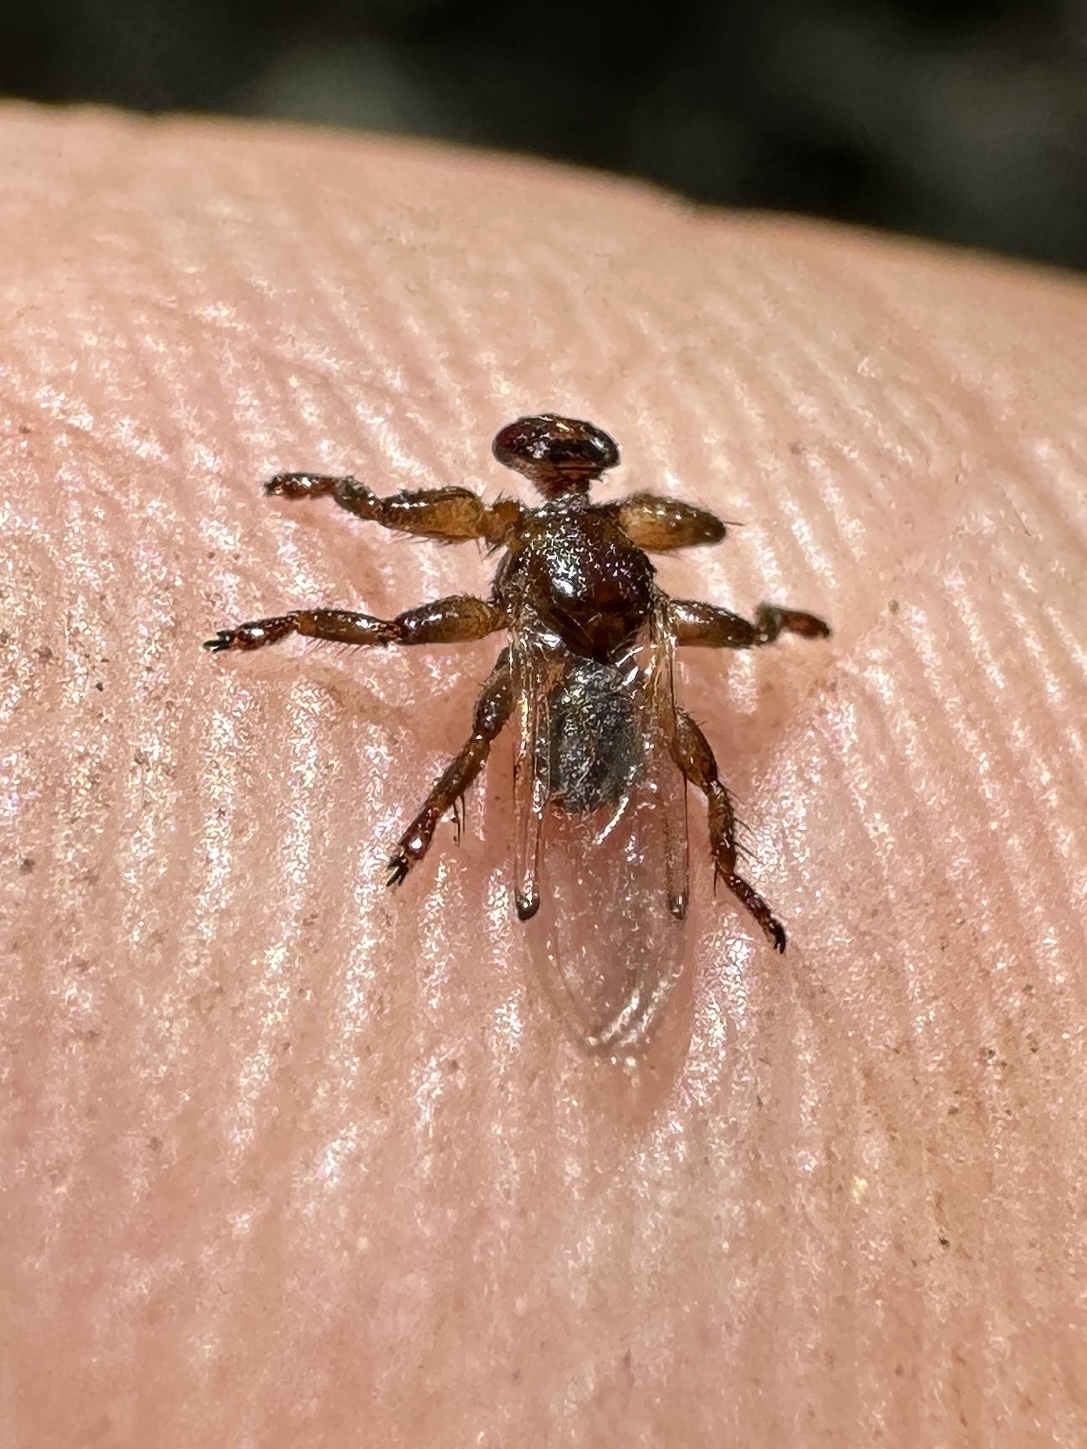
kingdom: Animalia
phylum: Arthropoda
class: Insecta
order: Diptera
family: Hippoboscidae
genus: Lipoptena
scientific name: Lipoptena depressa
